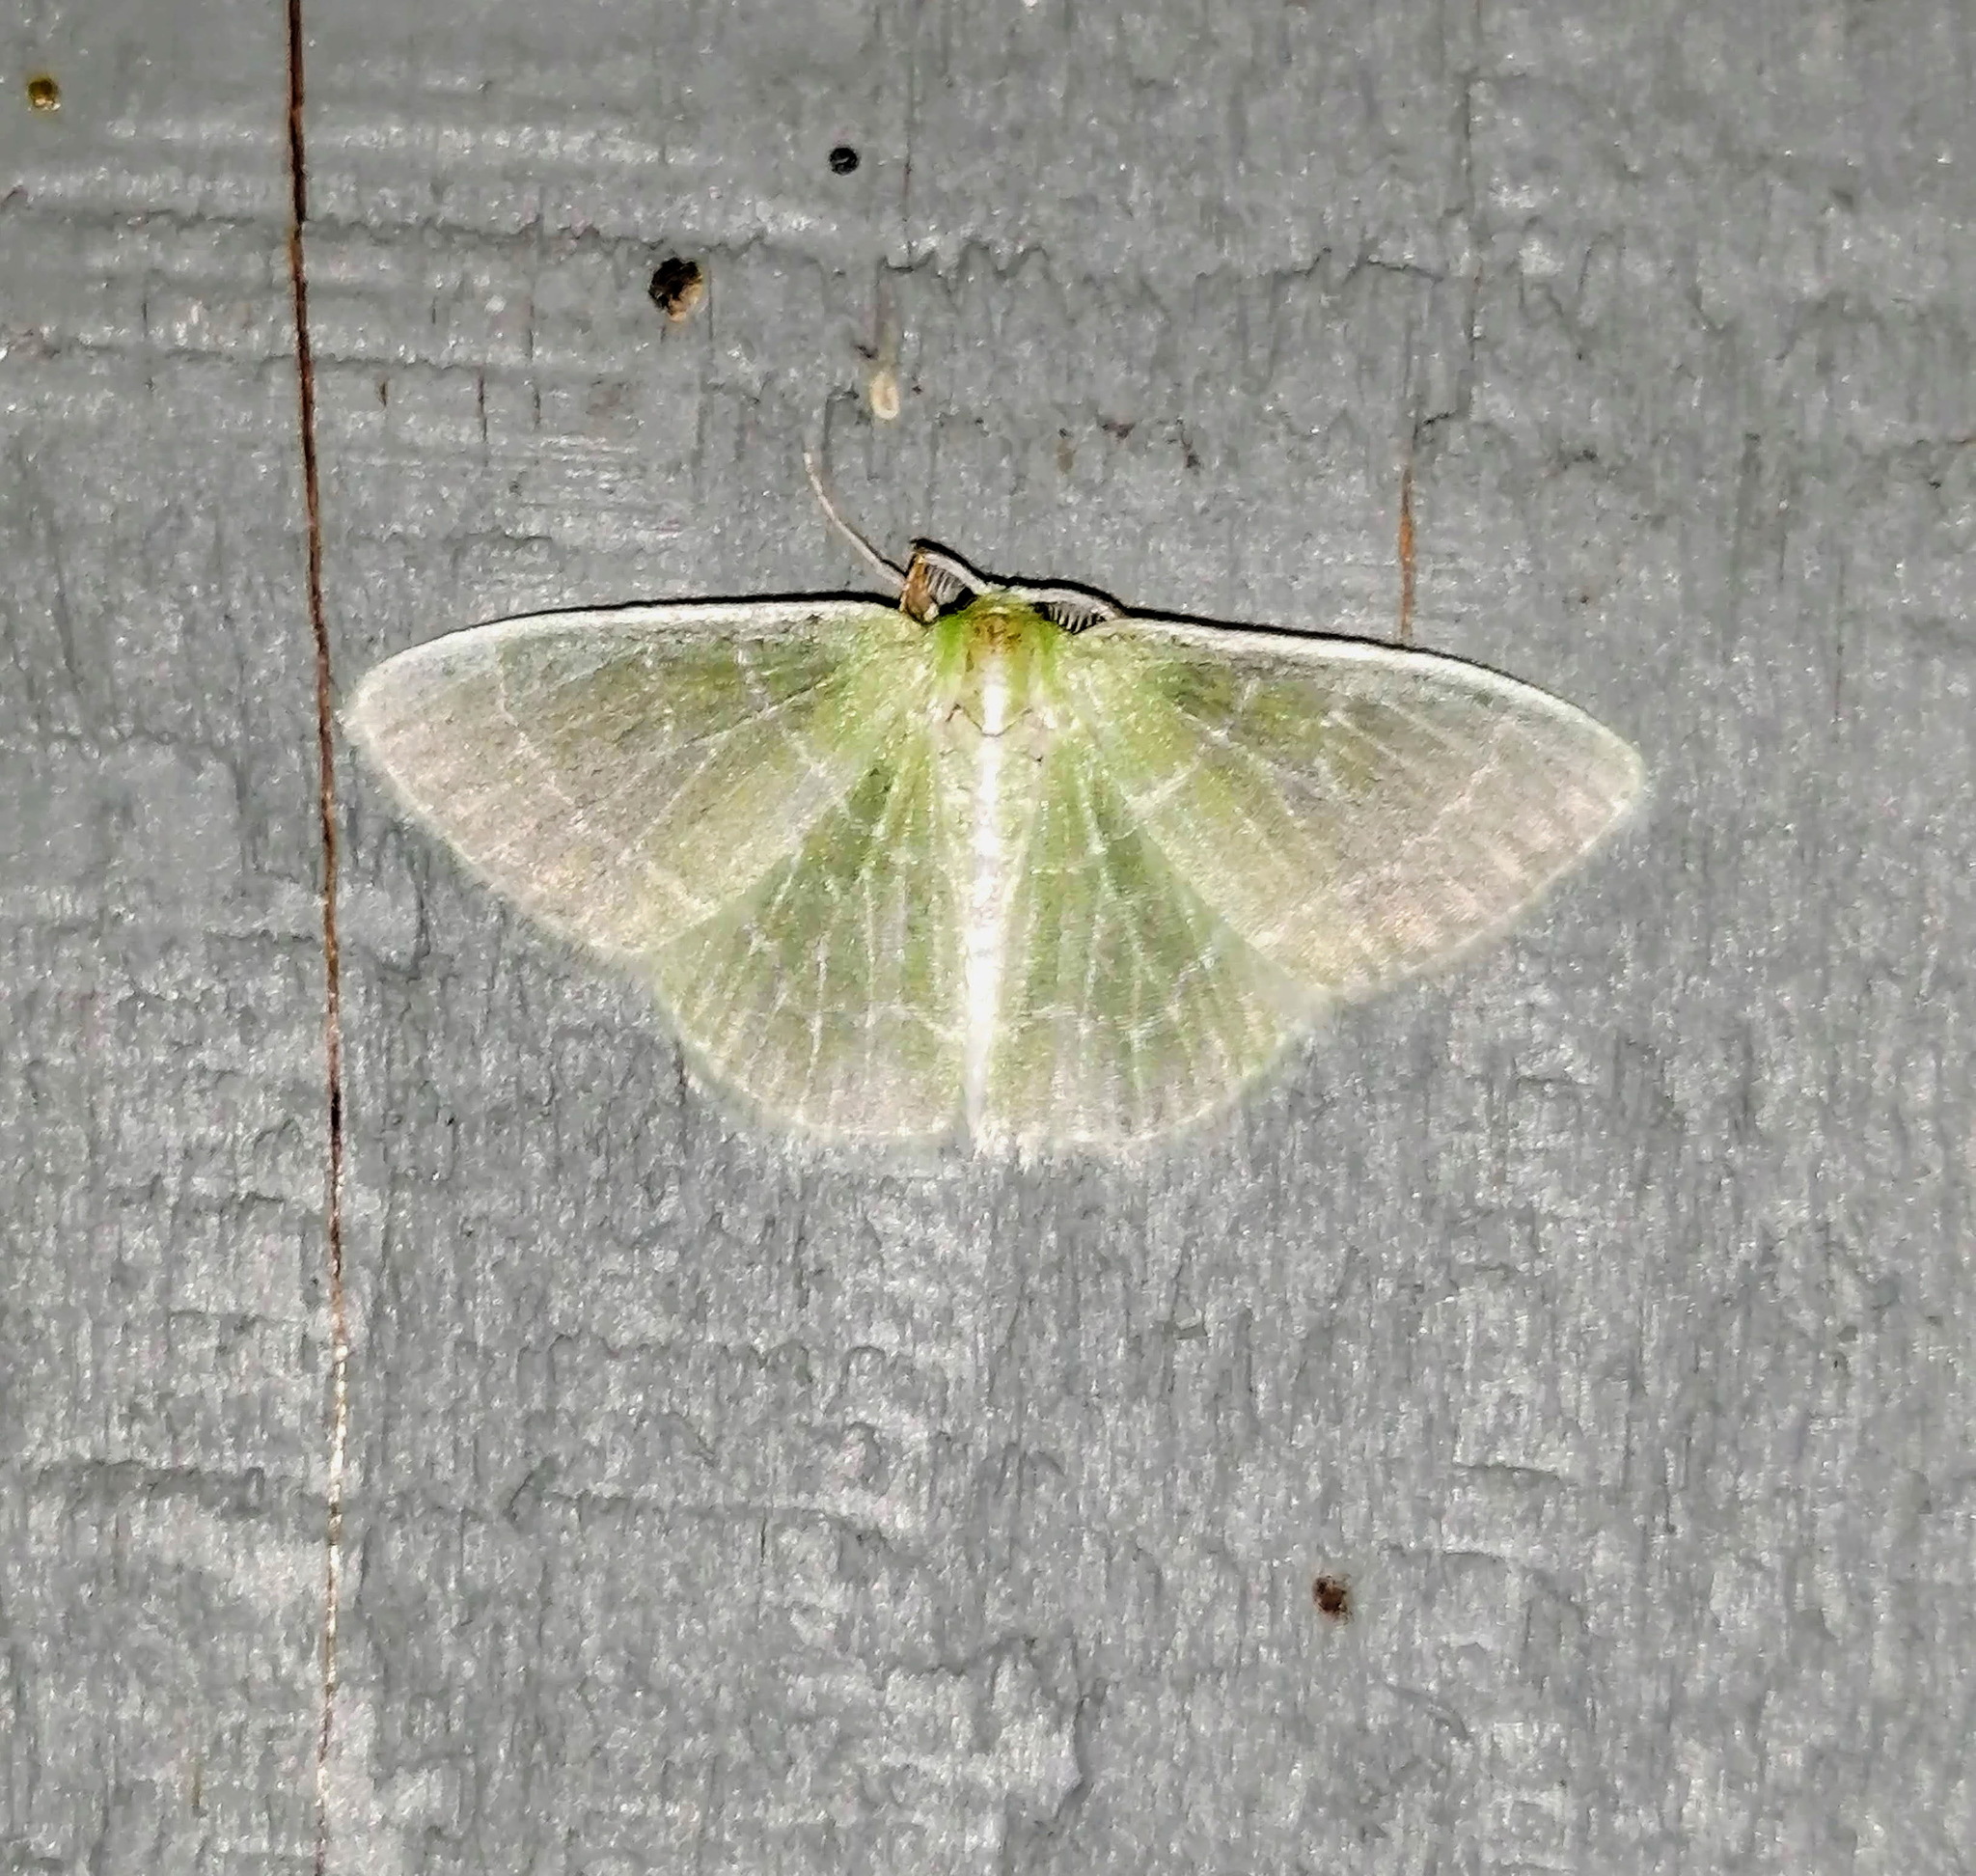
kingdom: Animalia
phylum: Arthropoda
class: Insecta
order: Lepidoptera
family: Geometridae
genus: Synchlora
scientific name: Synchlora aerata
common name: Wavy-lined emerald
